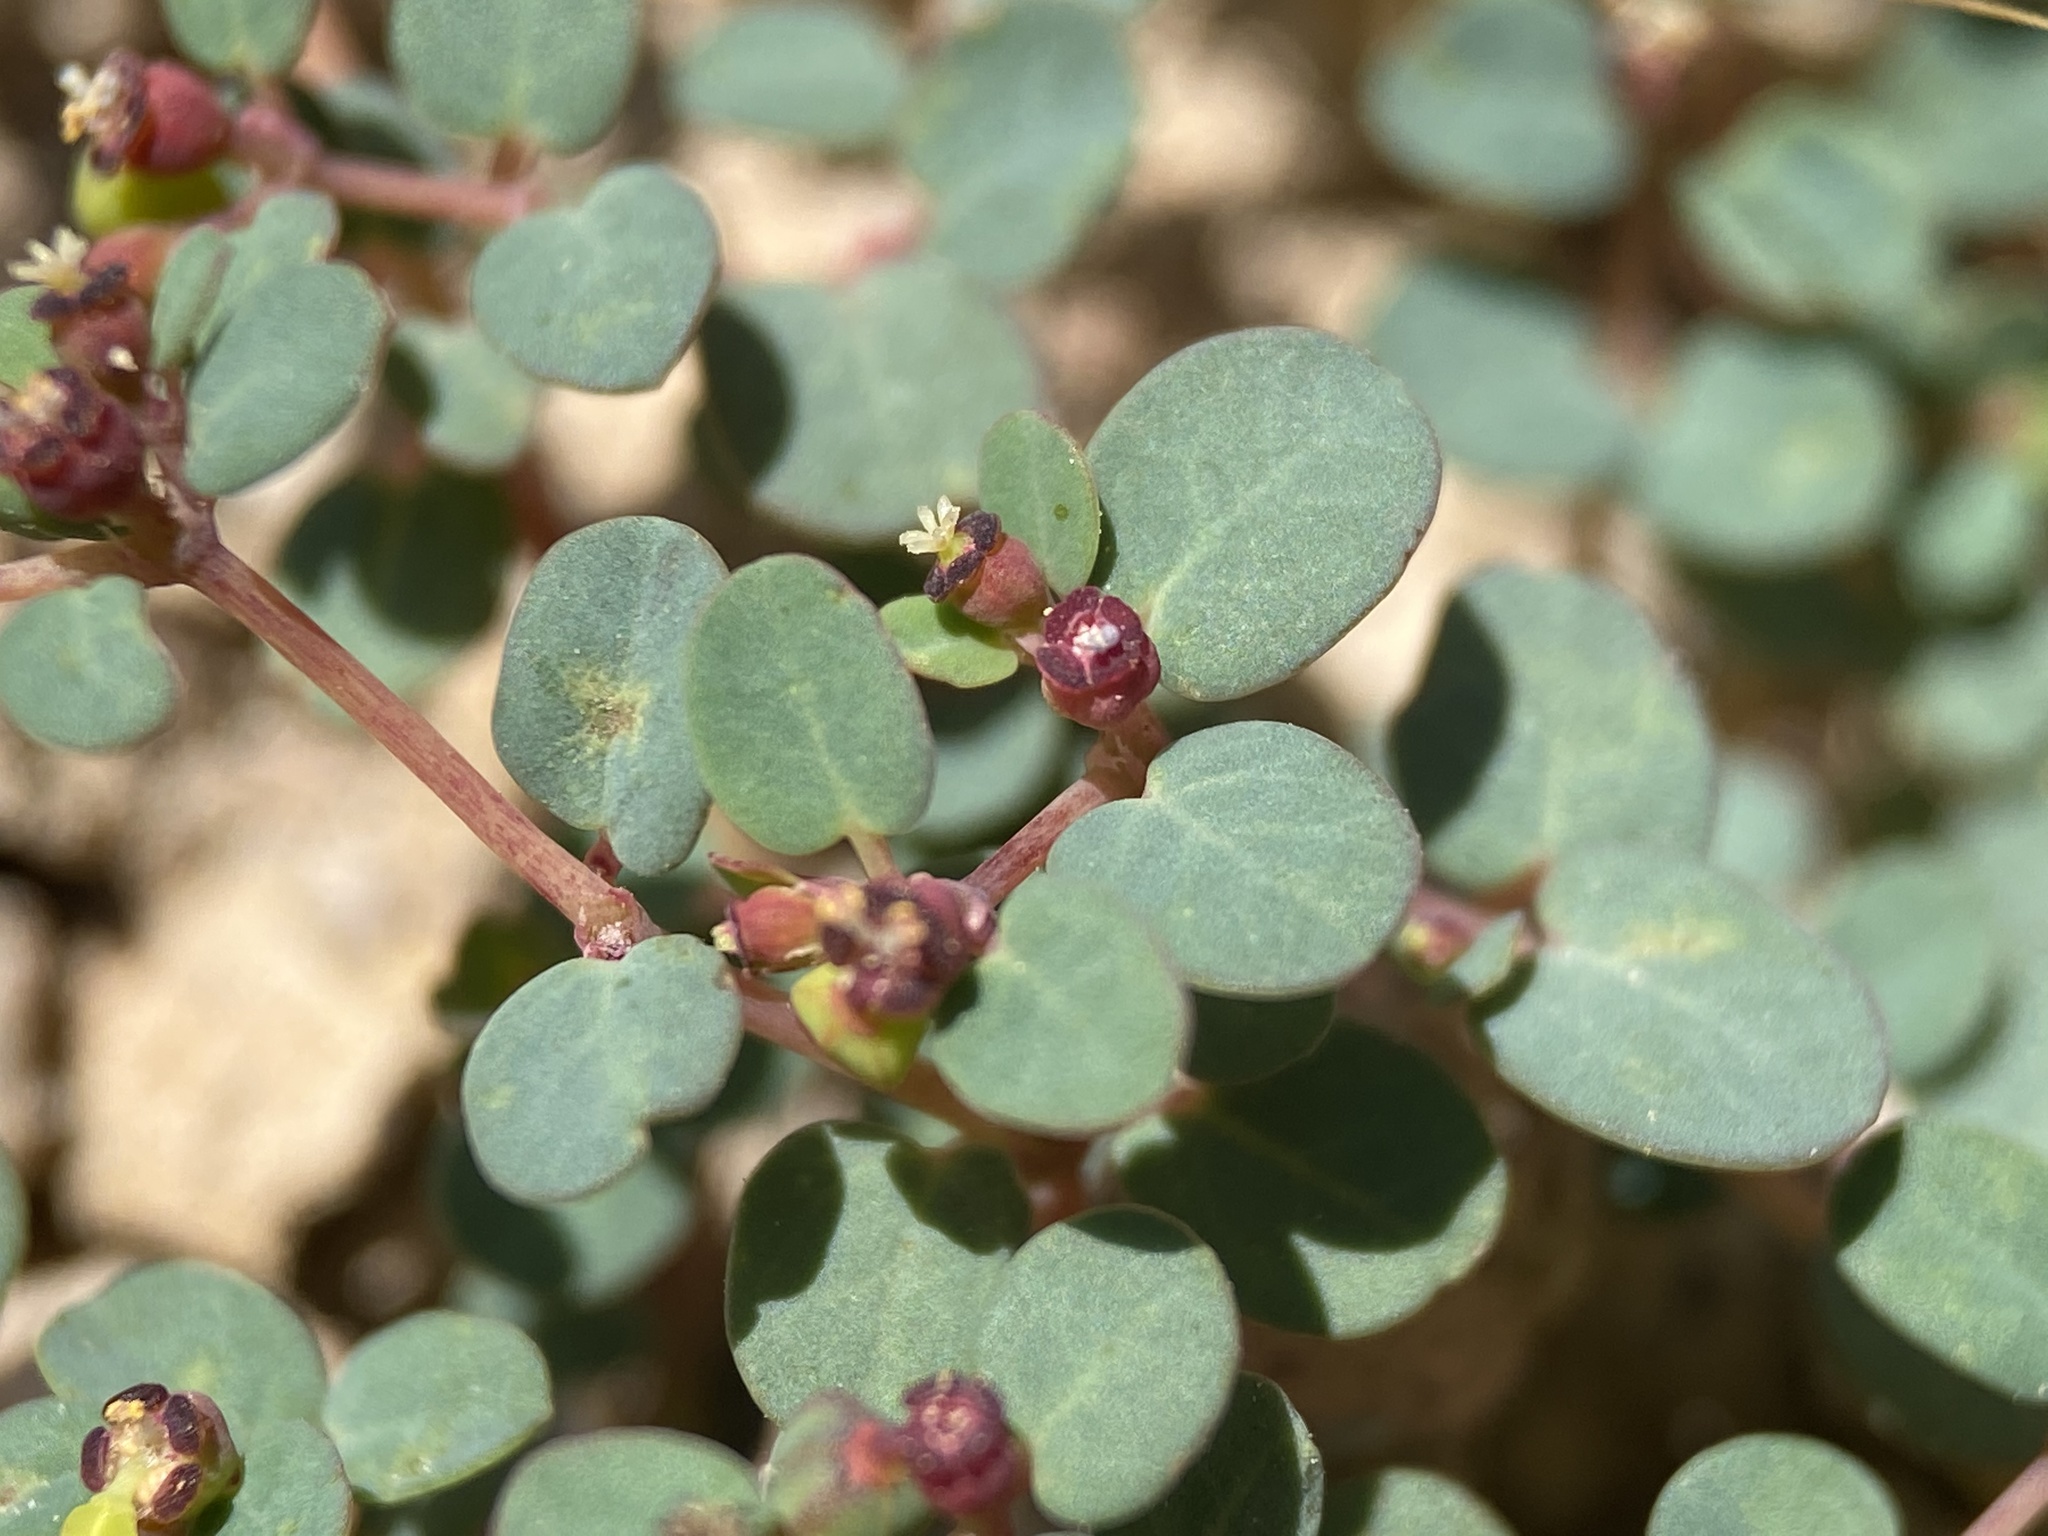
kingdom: Plantae
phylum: Tracheophyta
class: Magnoliopsida
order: Malpighiales
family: Euphorbiaceae
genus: Euphorbia
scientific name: Euphorbia simulans
